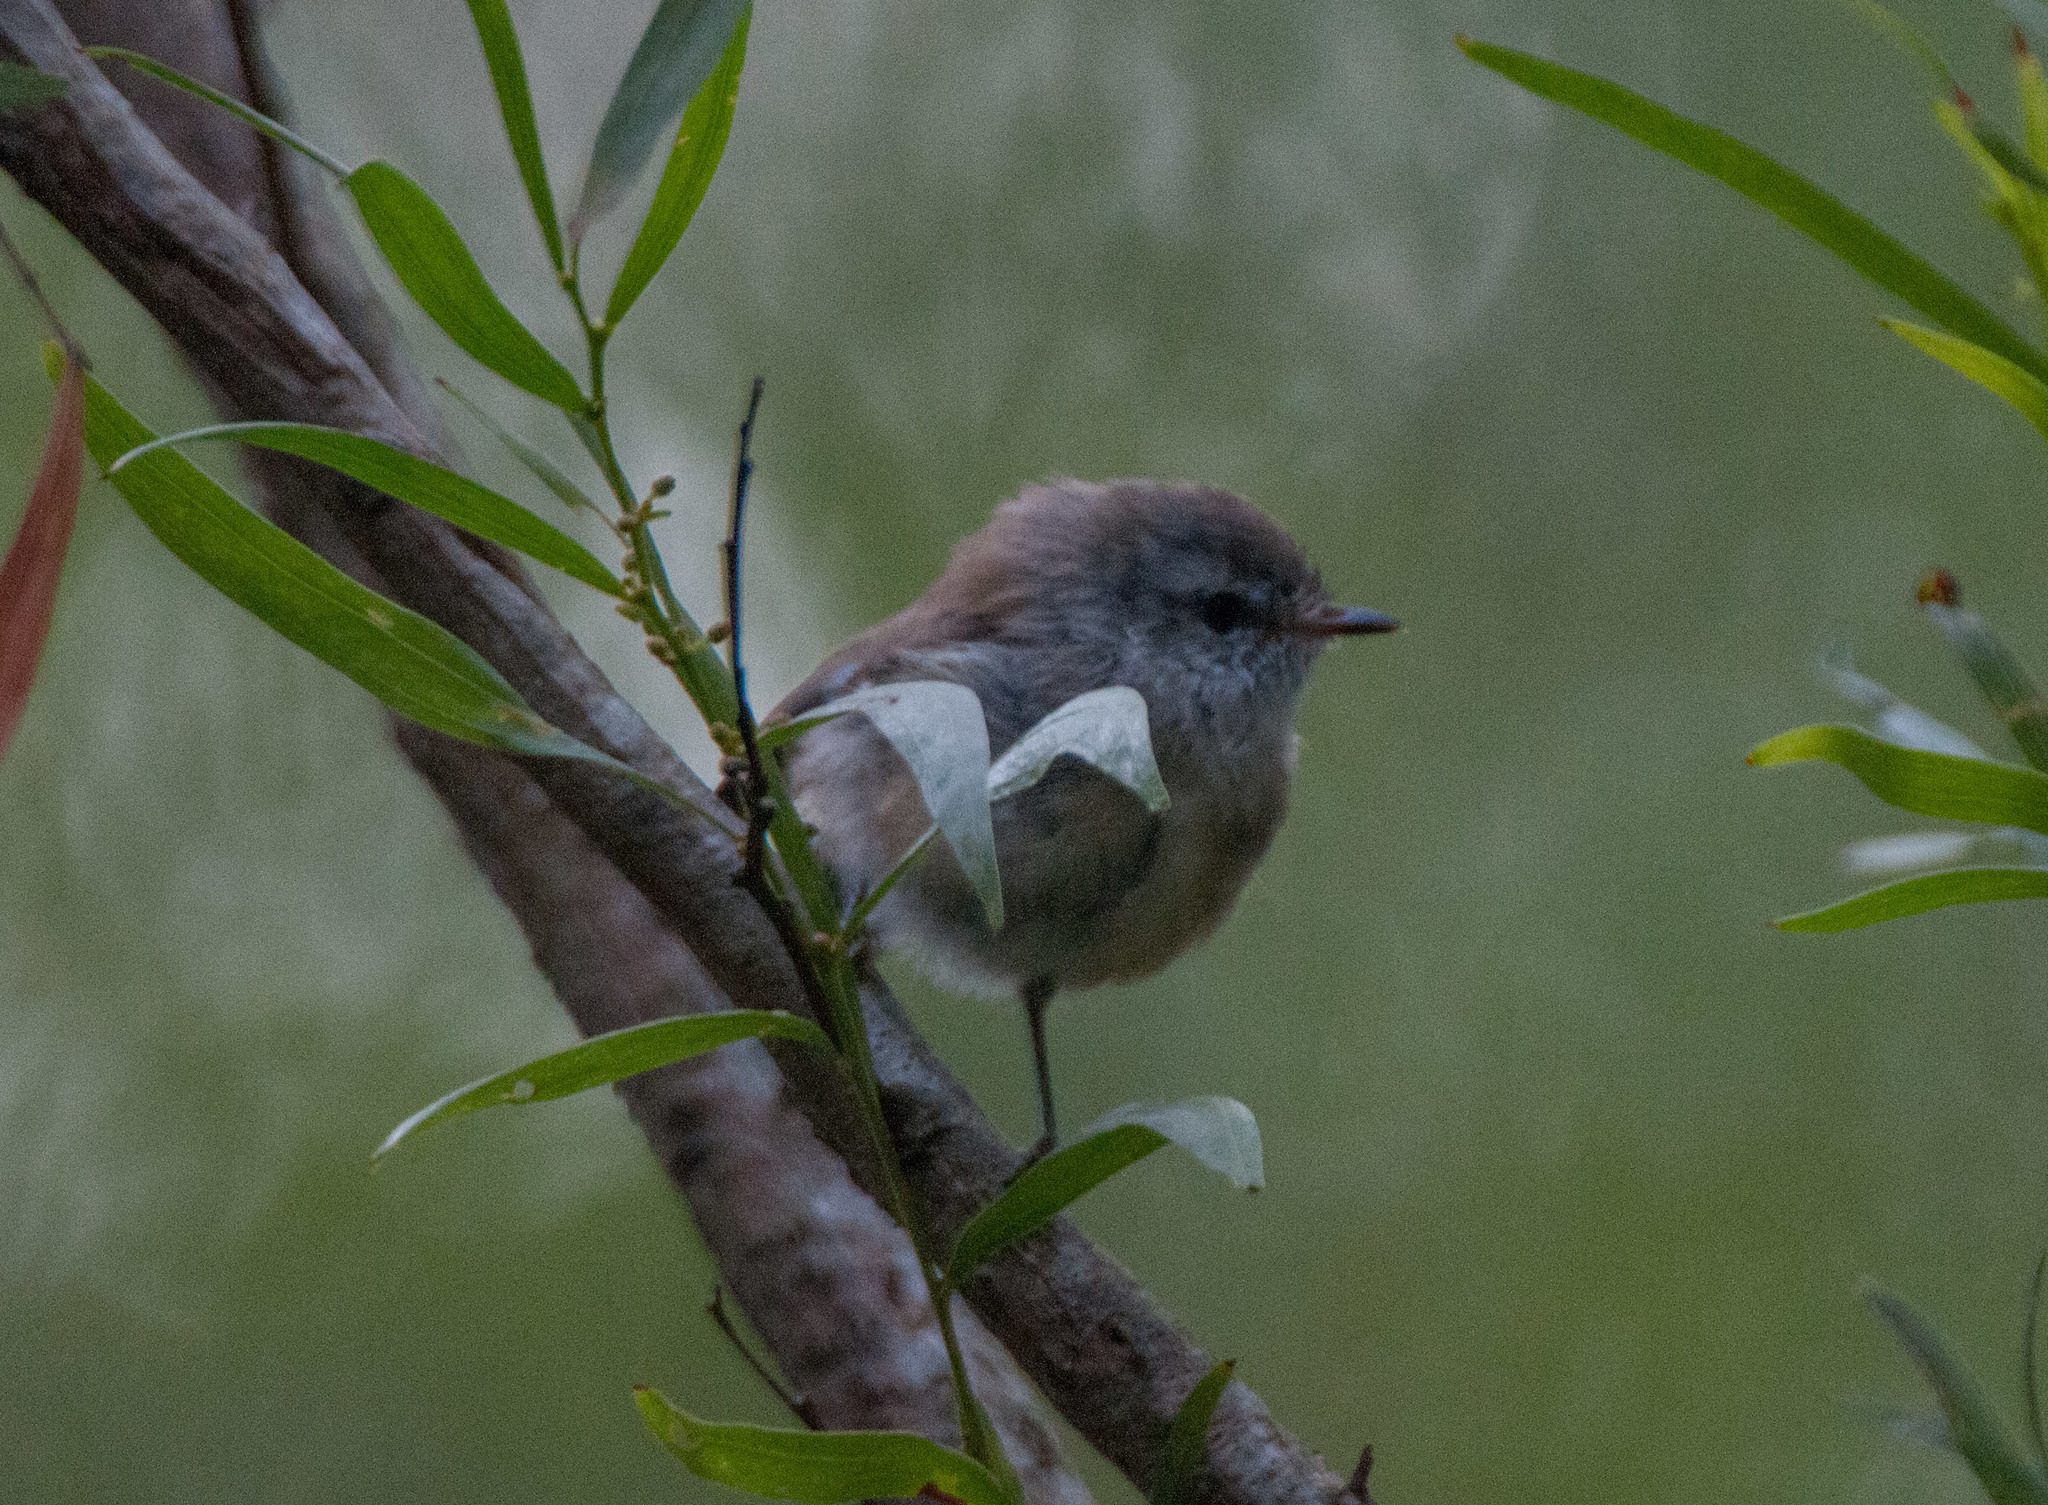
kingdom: Animalia
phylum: Chordata
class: Aves
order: Passeriformes
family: Acanthizidae
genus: Gerygone
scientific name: Gerygone mouki
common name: Brown gerygone
